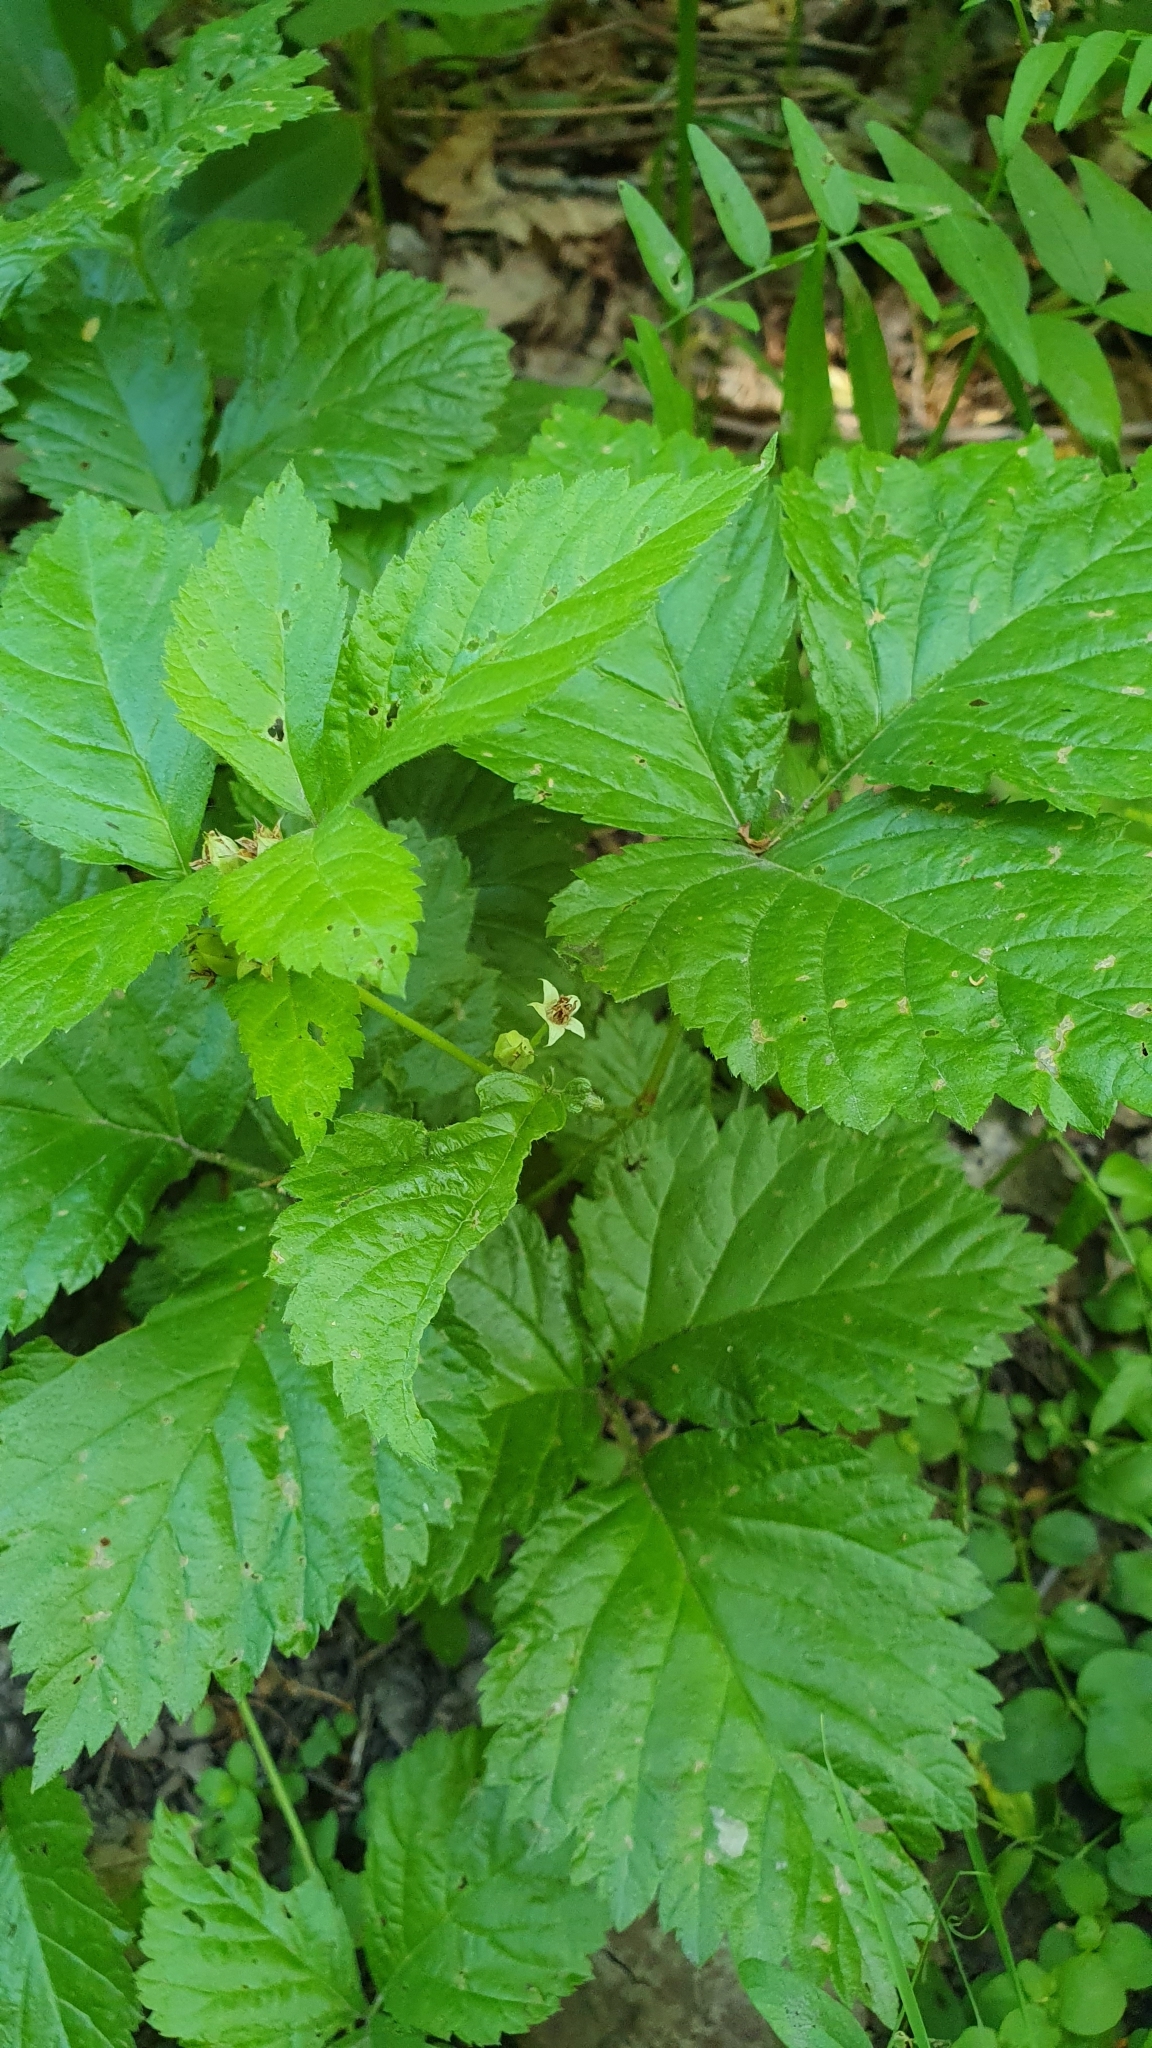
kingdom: Plantae
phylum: Tracheophyta
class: Magnoliopsida
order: Rosales
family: Rosaceae
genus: Rubus
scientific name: Rubus saxatilis
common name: Stone bramble
